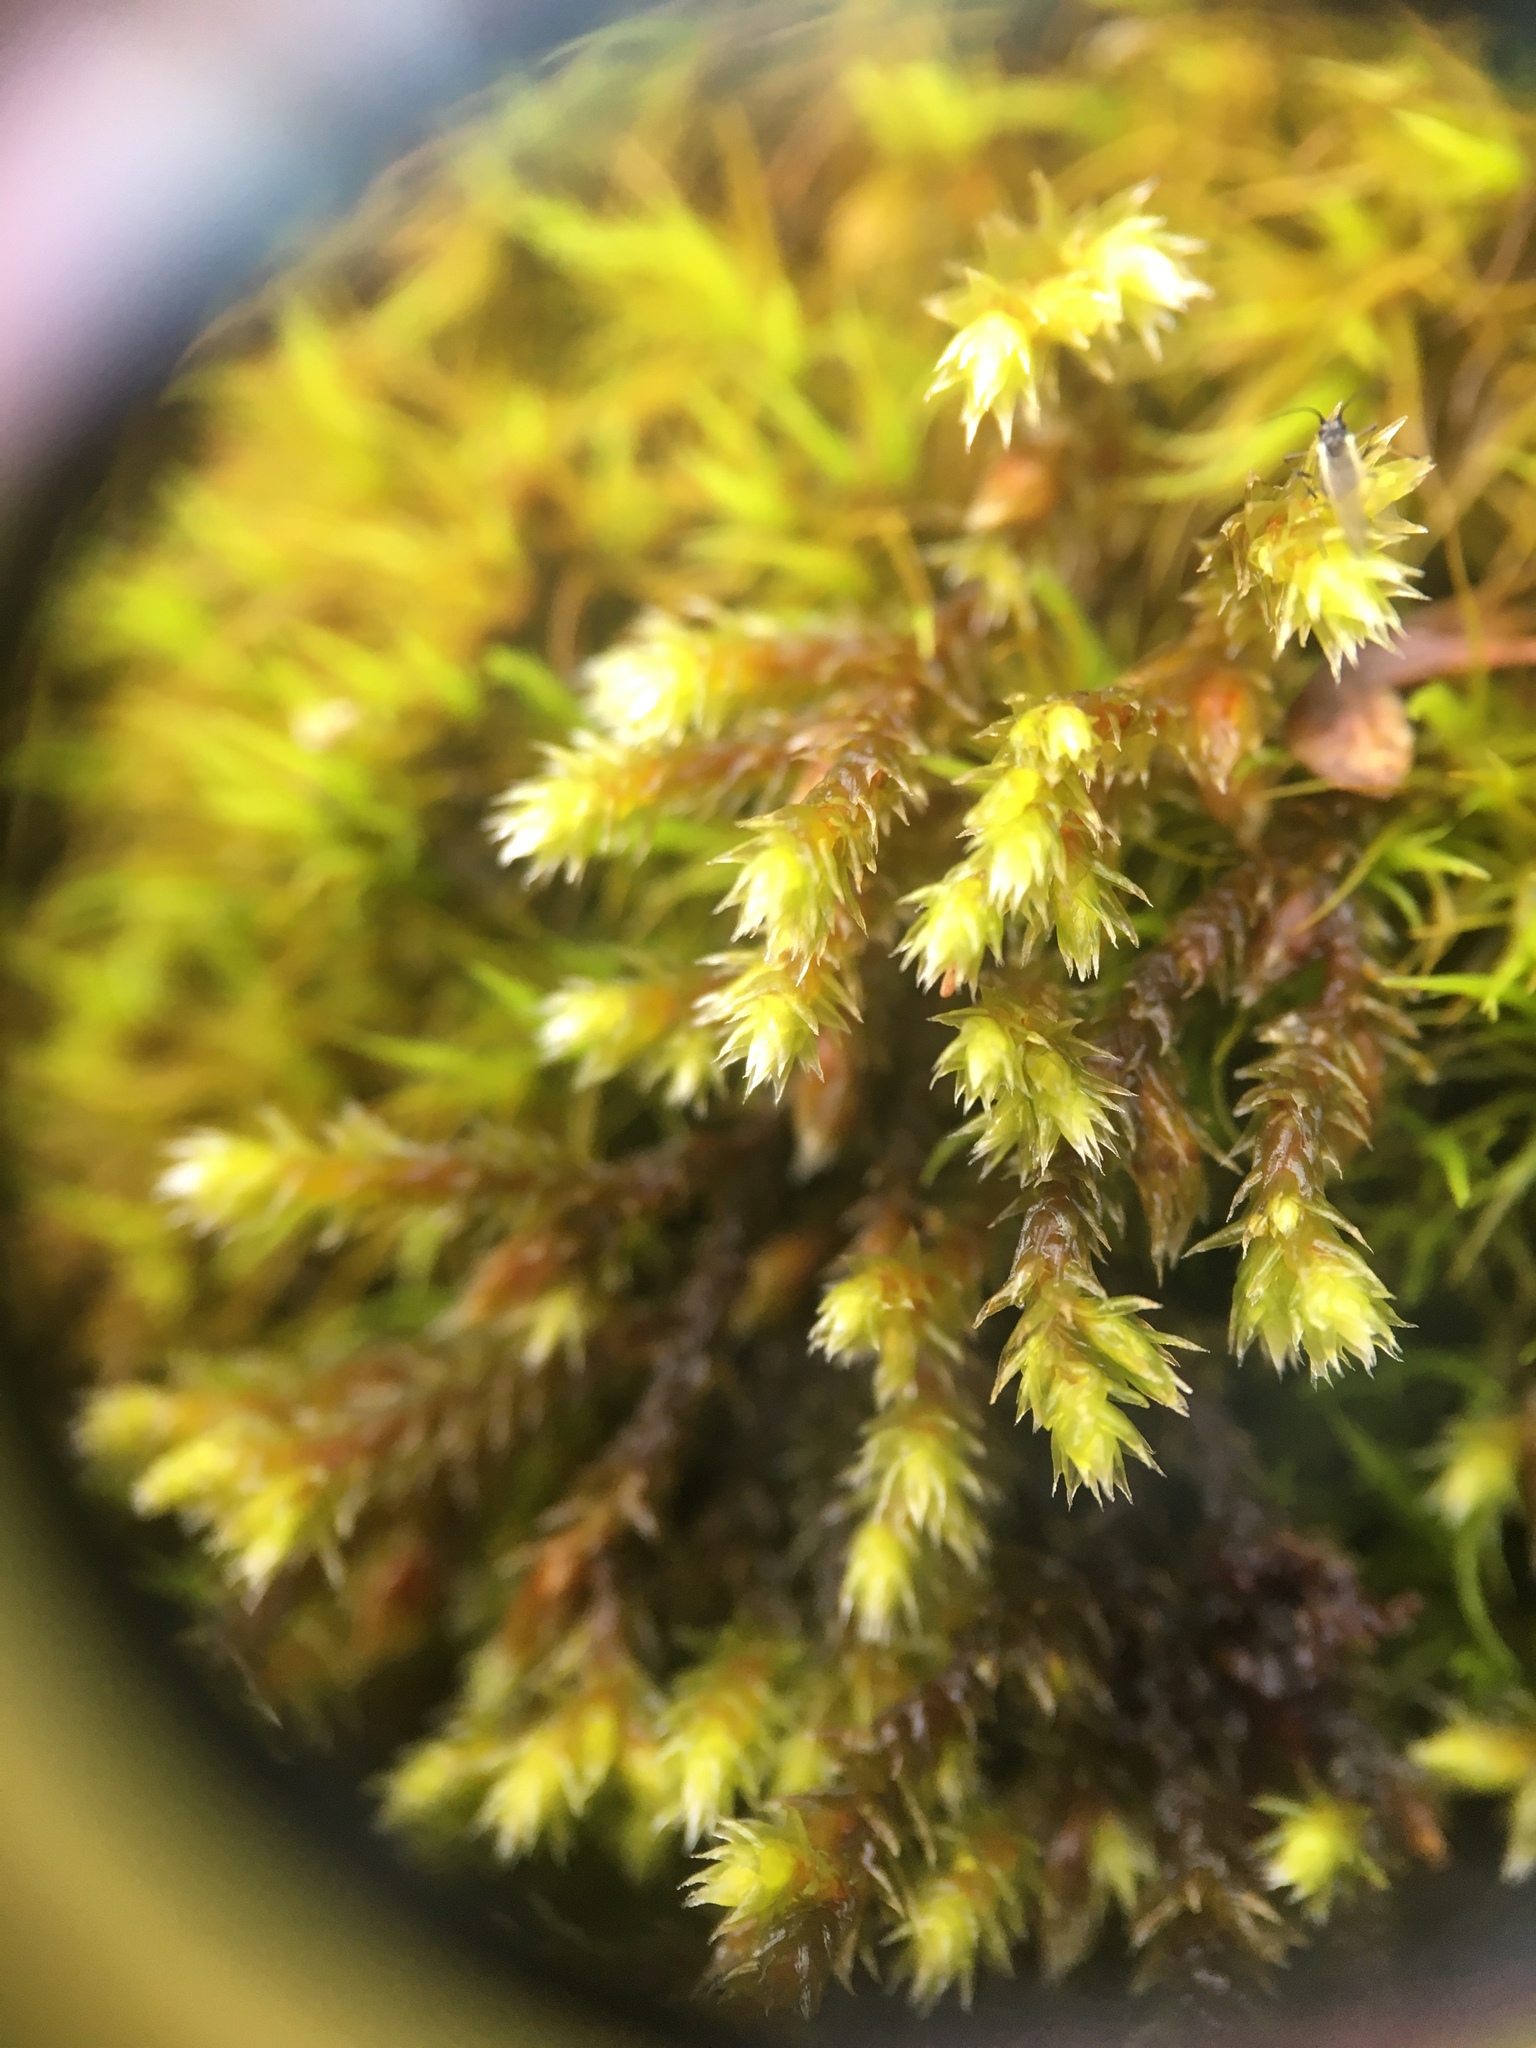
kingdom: Plantae
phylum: Bryophyta
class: Bryopsida
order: Hedwigiales
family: Hedwigiaceae
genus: Hedwigia
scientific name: Hedwigia ciliata
